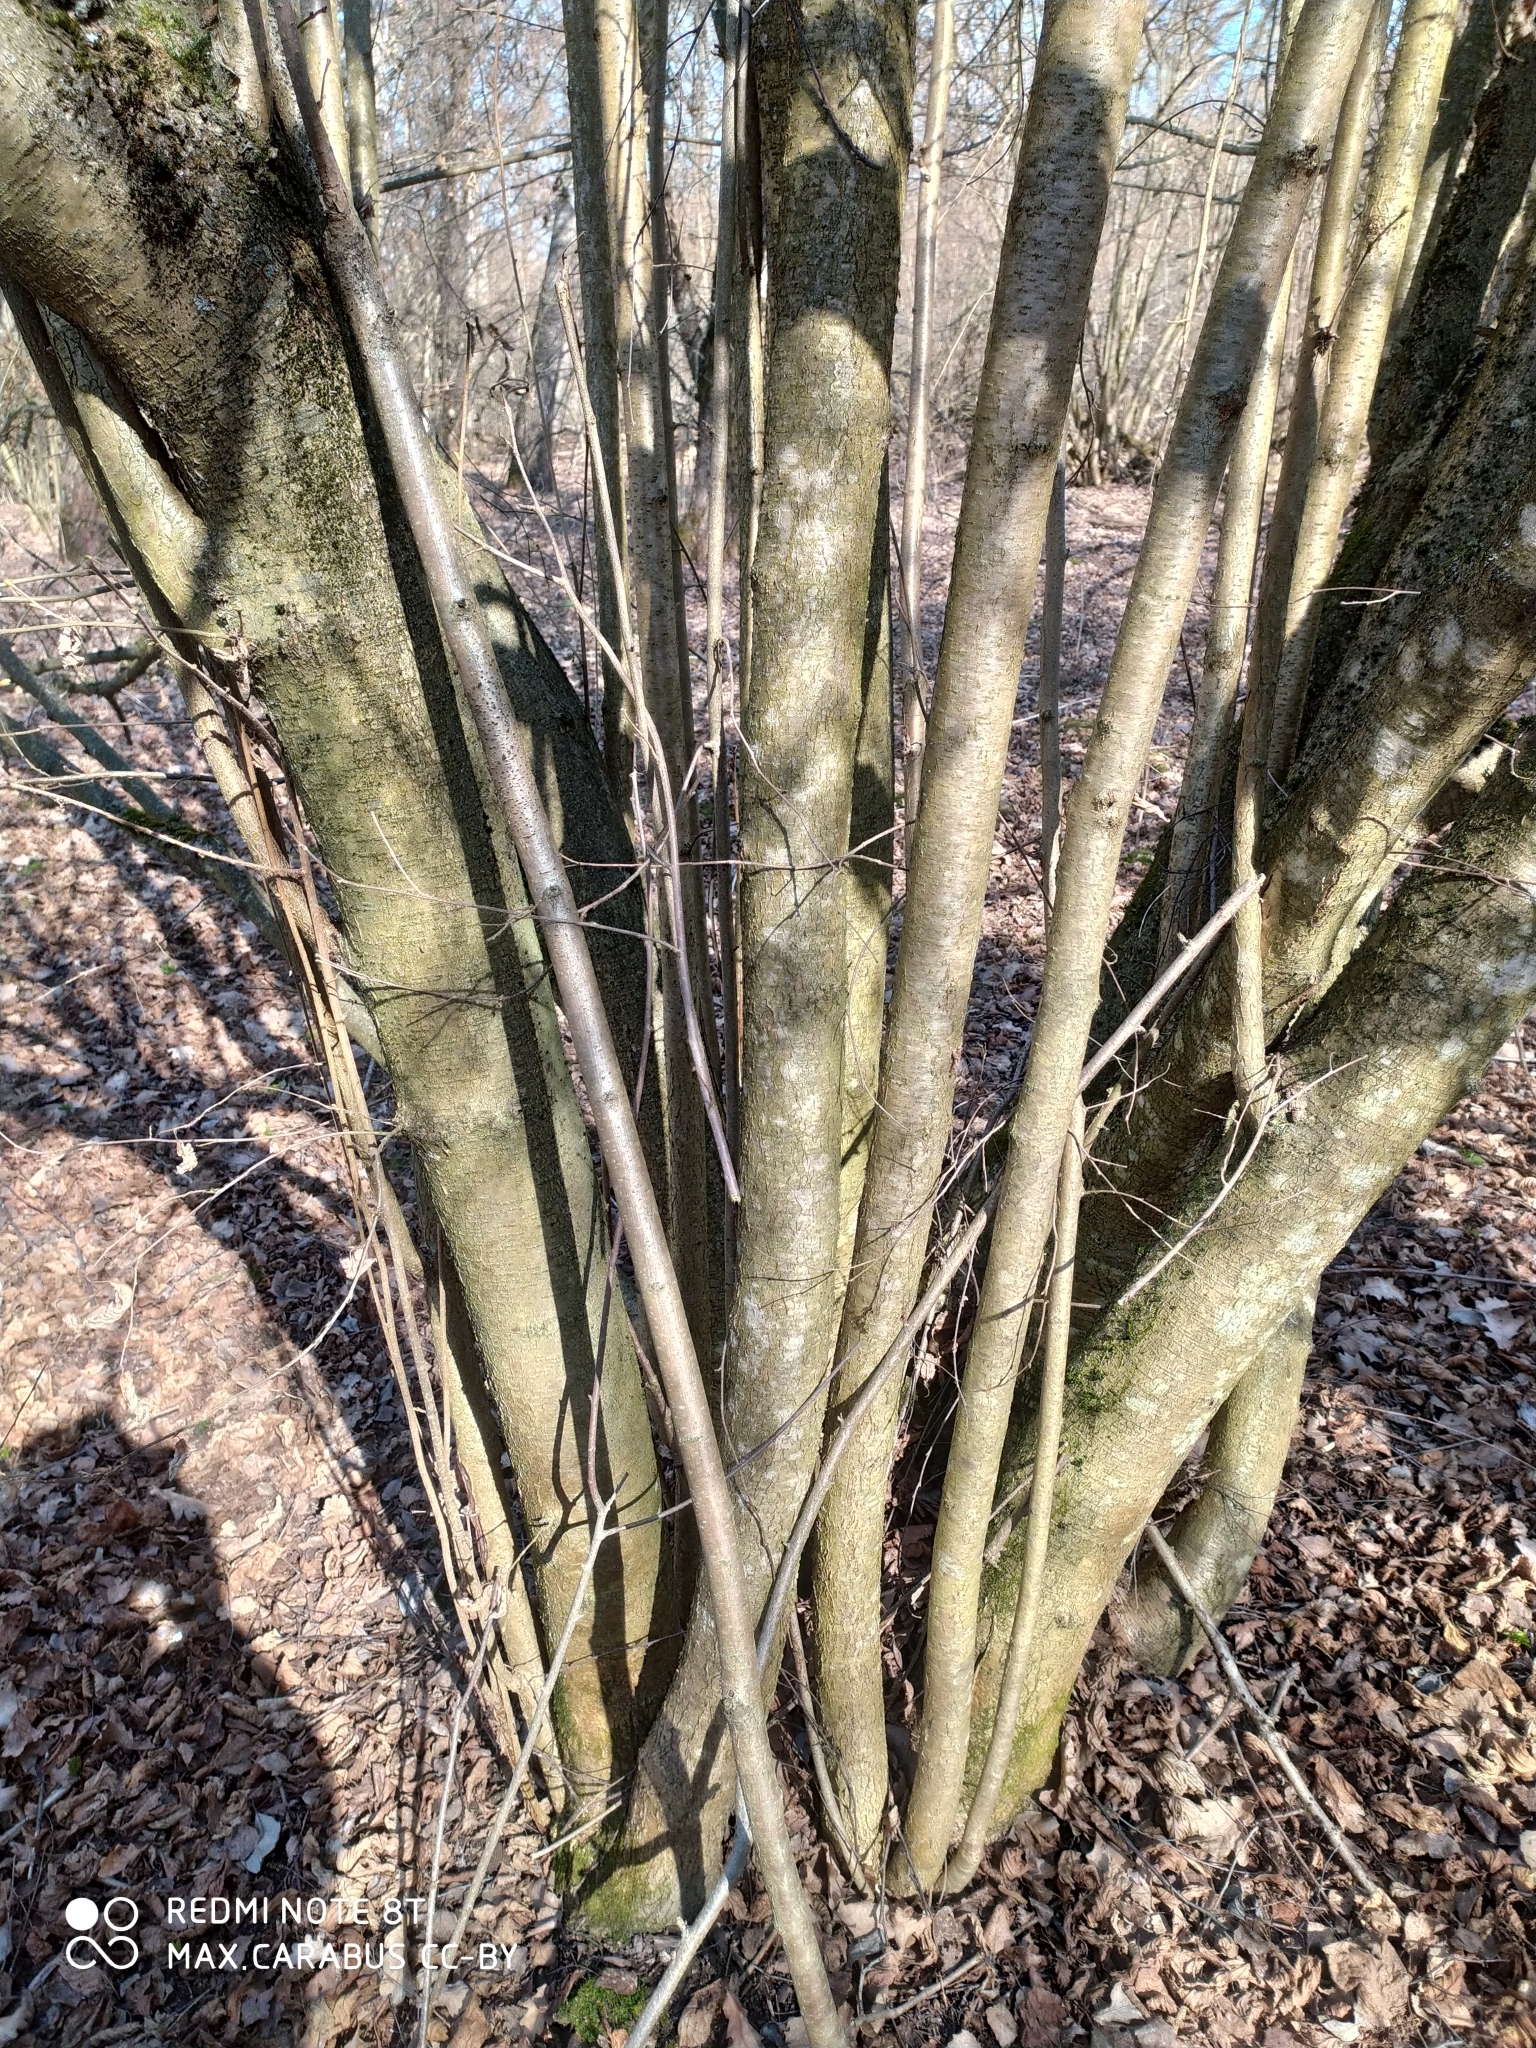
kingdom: Plantae
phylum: Tracheophyta
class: Magnoliopsida
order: Fagales
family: Betulaceae
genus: Corylus
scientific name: Corylus avellana
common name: European hazel
